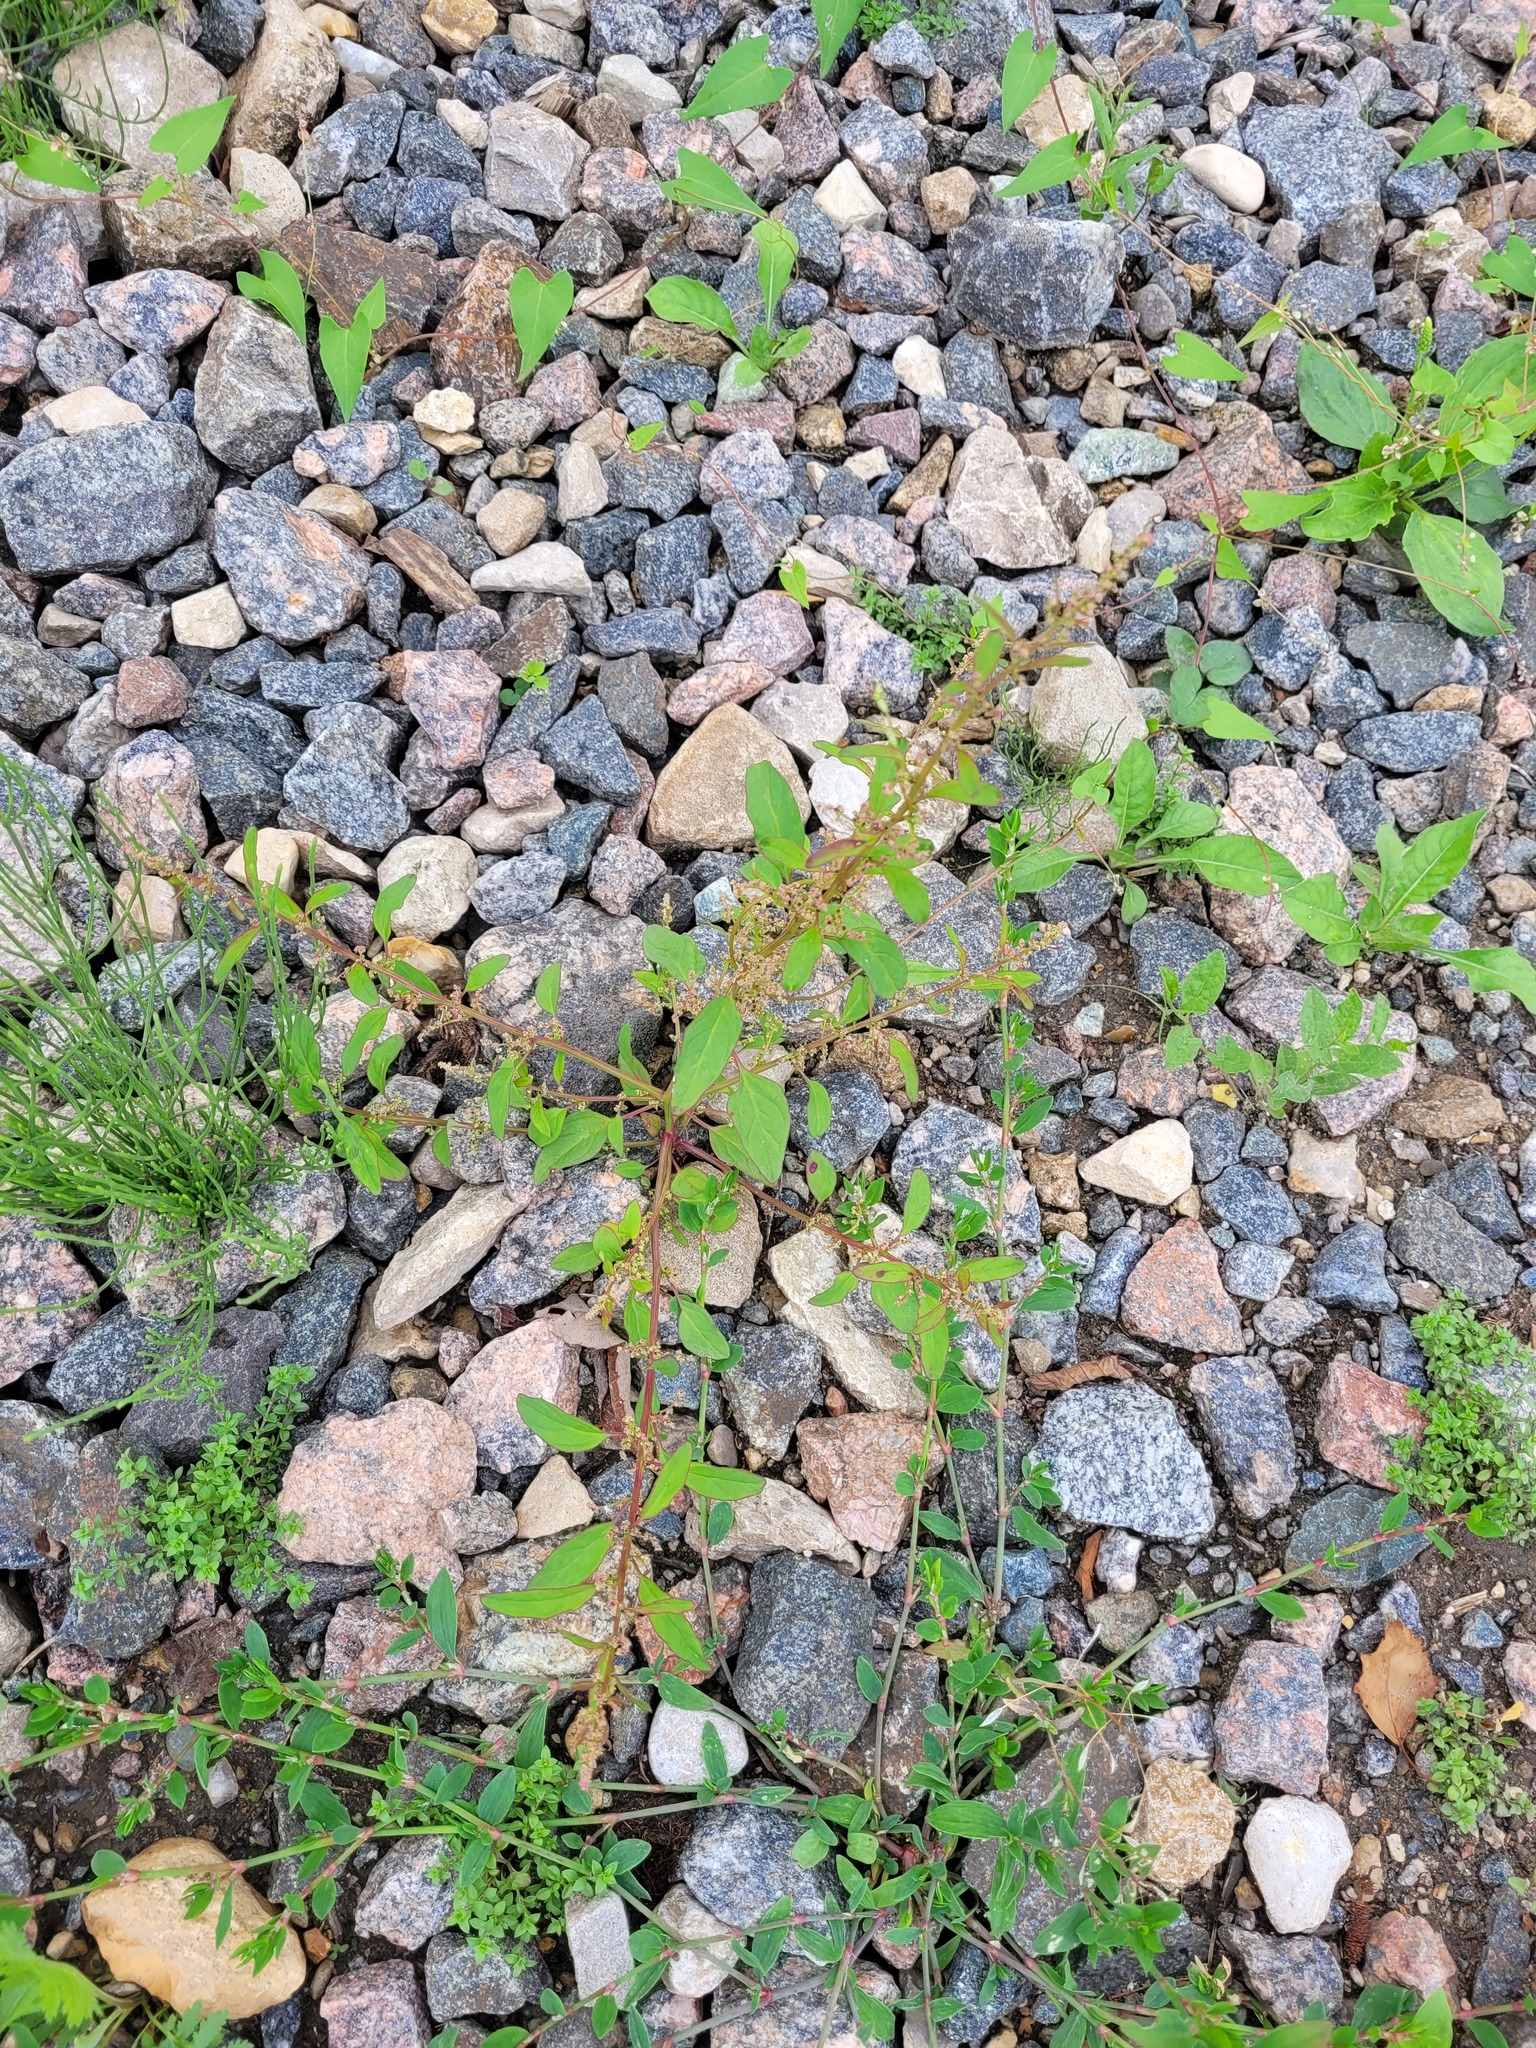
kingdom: Plantae
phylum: Tracheophyta
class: Magnoliopsida
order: Caryophyllales
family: Amaranthaceae
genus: Lipandra
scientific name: Lipandra polysperma
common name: Many-seed goosefoot
